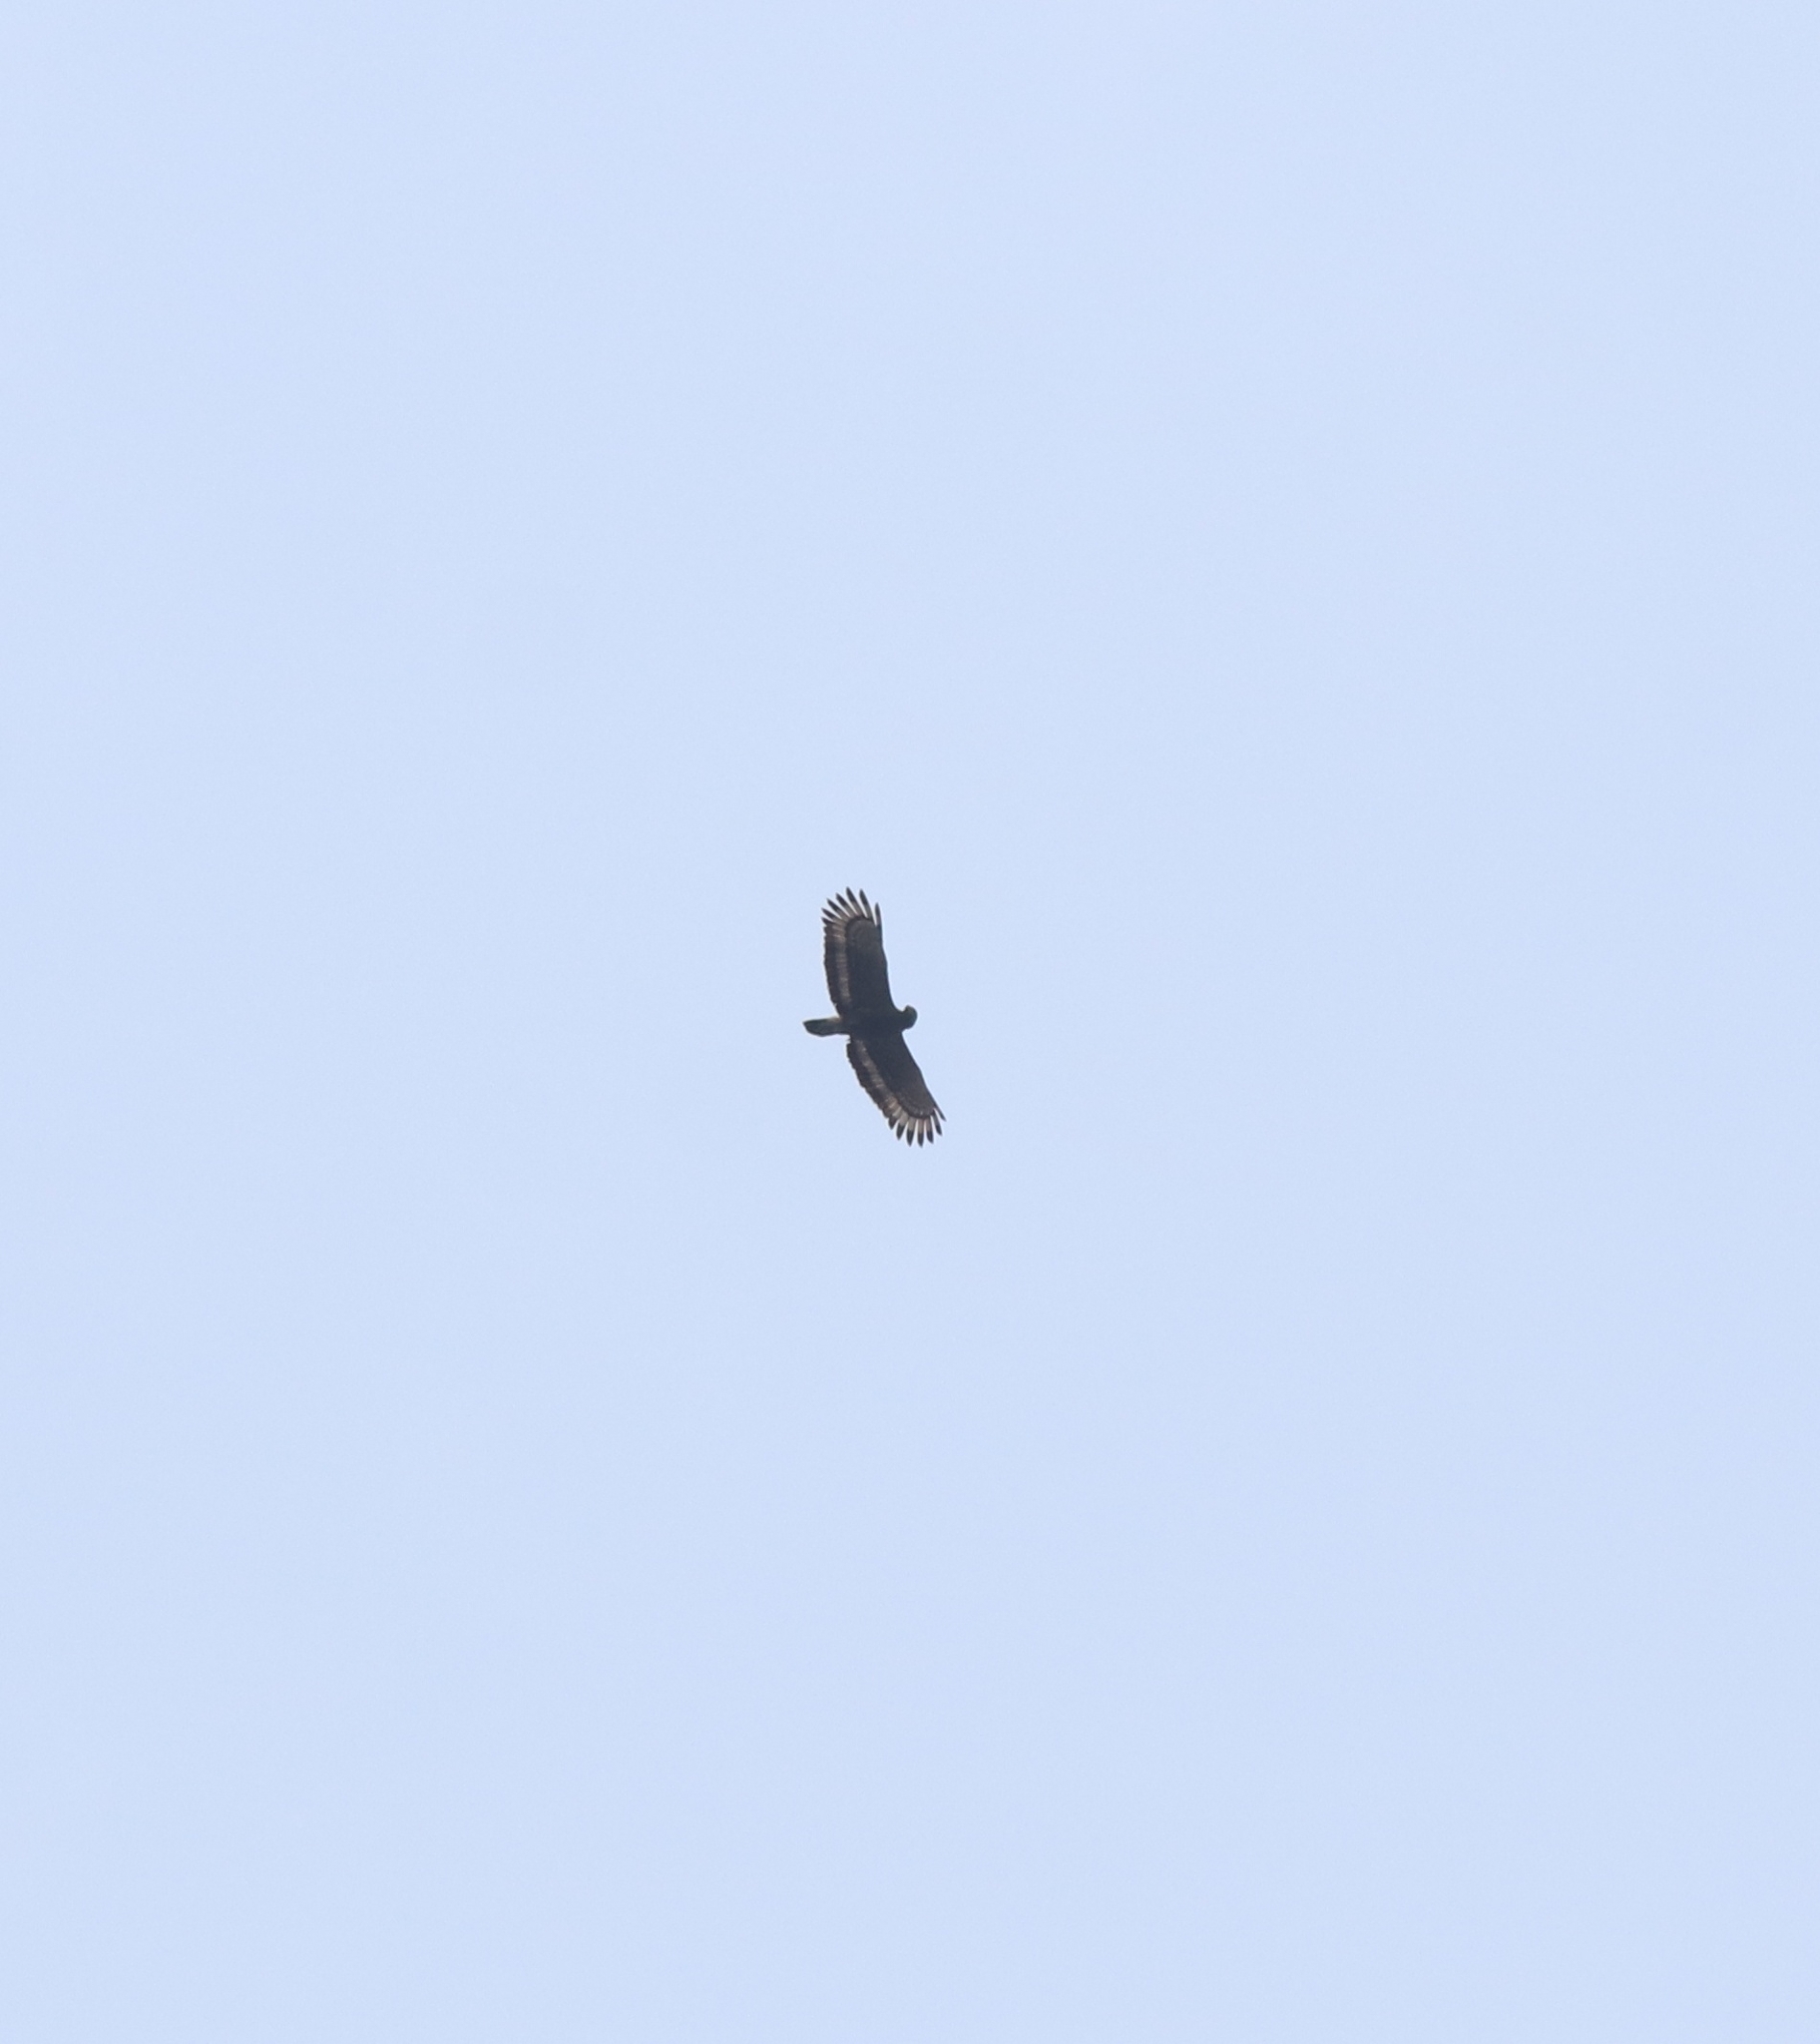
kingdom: Animalia
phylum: Chordata
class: Aves
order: Accipitriformes
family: Accipitridae
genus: Spilornis
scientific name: Spilornis cheela
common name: Crested serpent eagle
